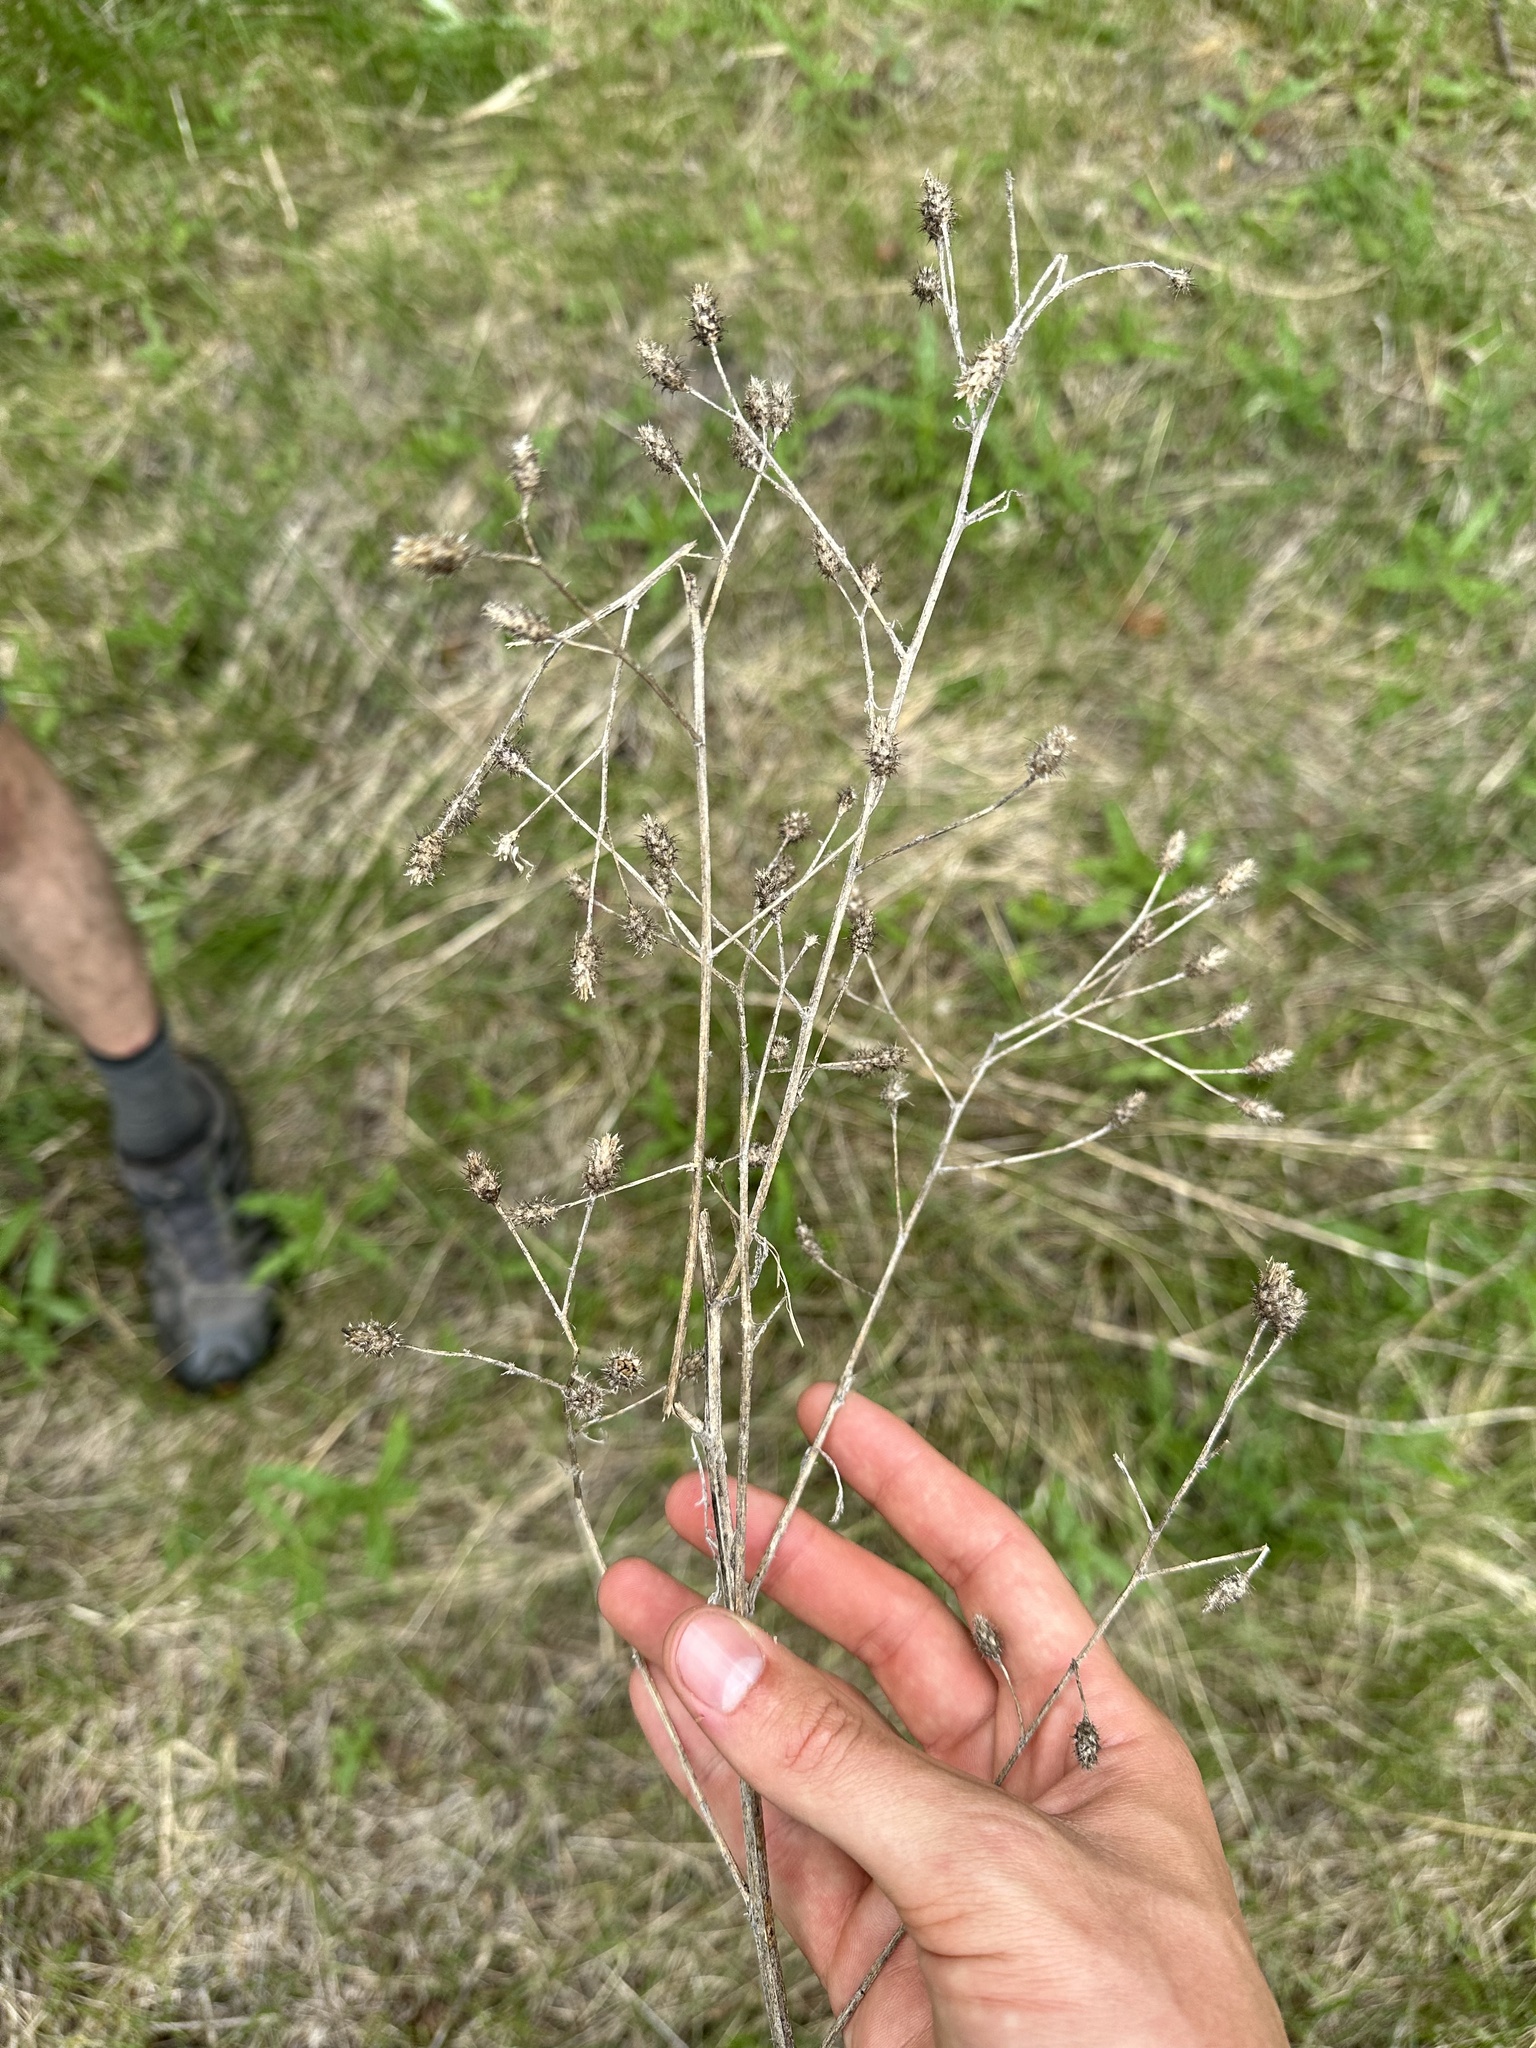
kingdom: Plantae
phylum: Tracheophyta
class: Magnoliopsida
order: Asterales
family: Asteraceae
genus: Centaurea
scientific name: Centaurea diffusa
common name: Diffuse knapweed
